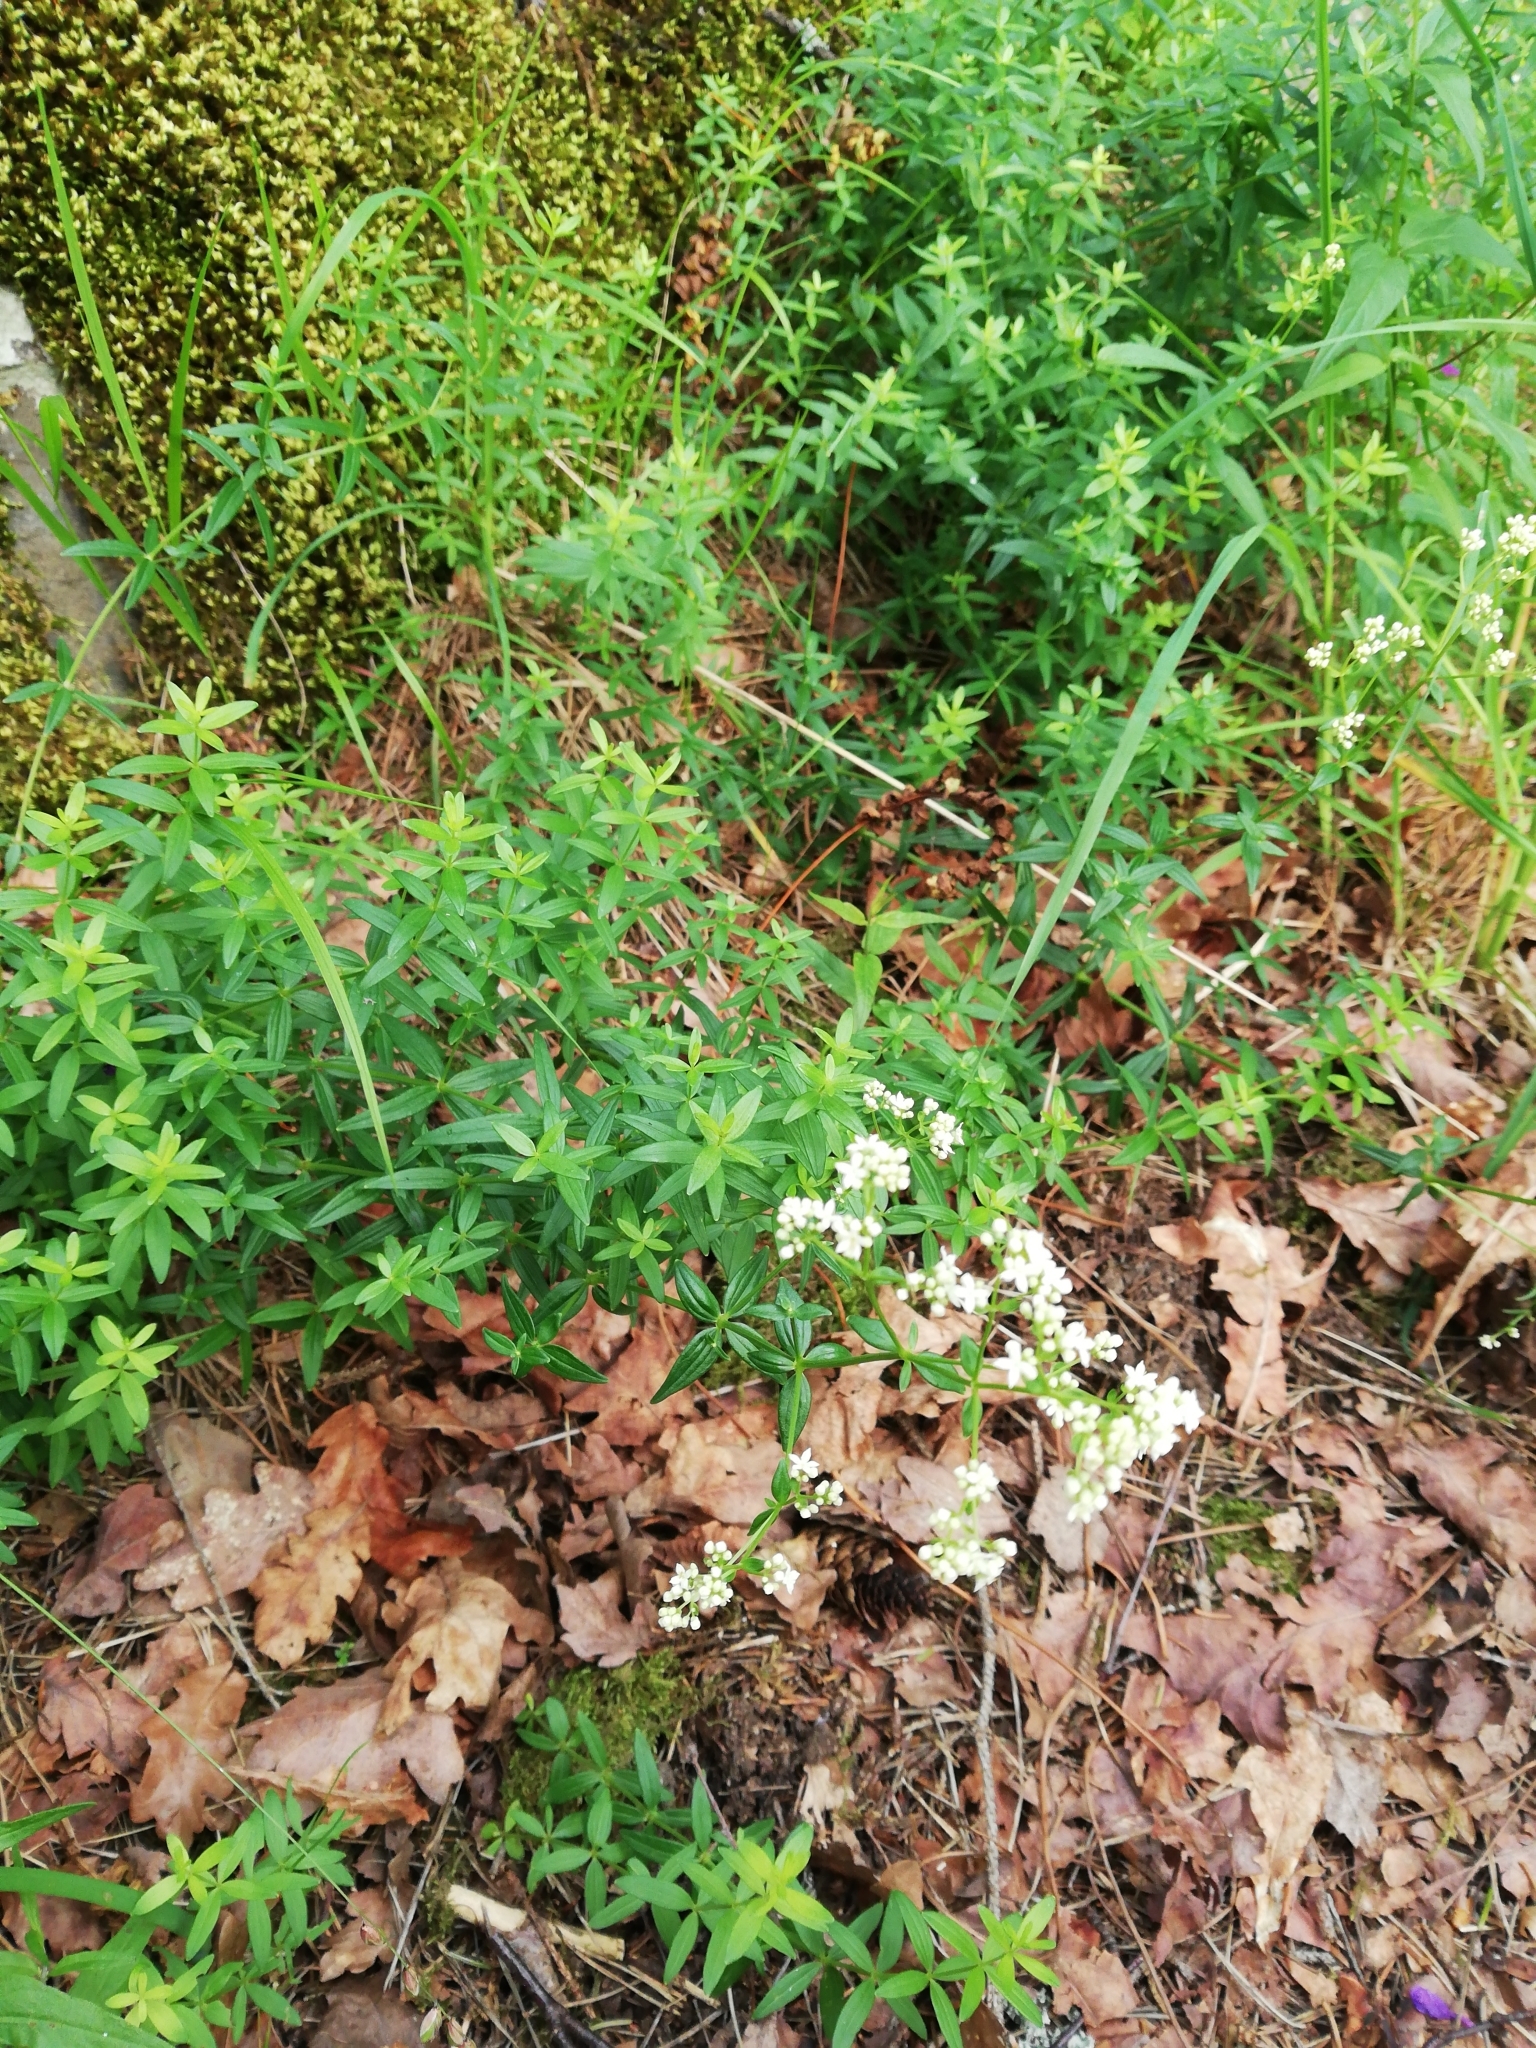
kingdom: Plantae
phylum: Tracheophyta
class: Magnoliopsida
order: Gentianales
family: Rubiaceae
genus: Galium
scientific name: Galium boreale
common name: Northern bedstraw
